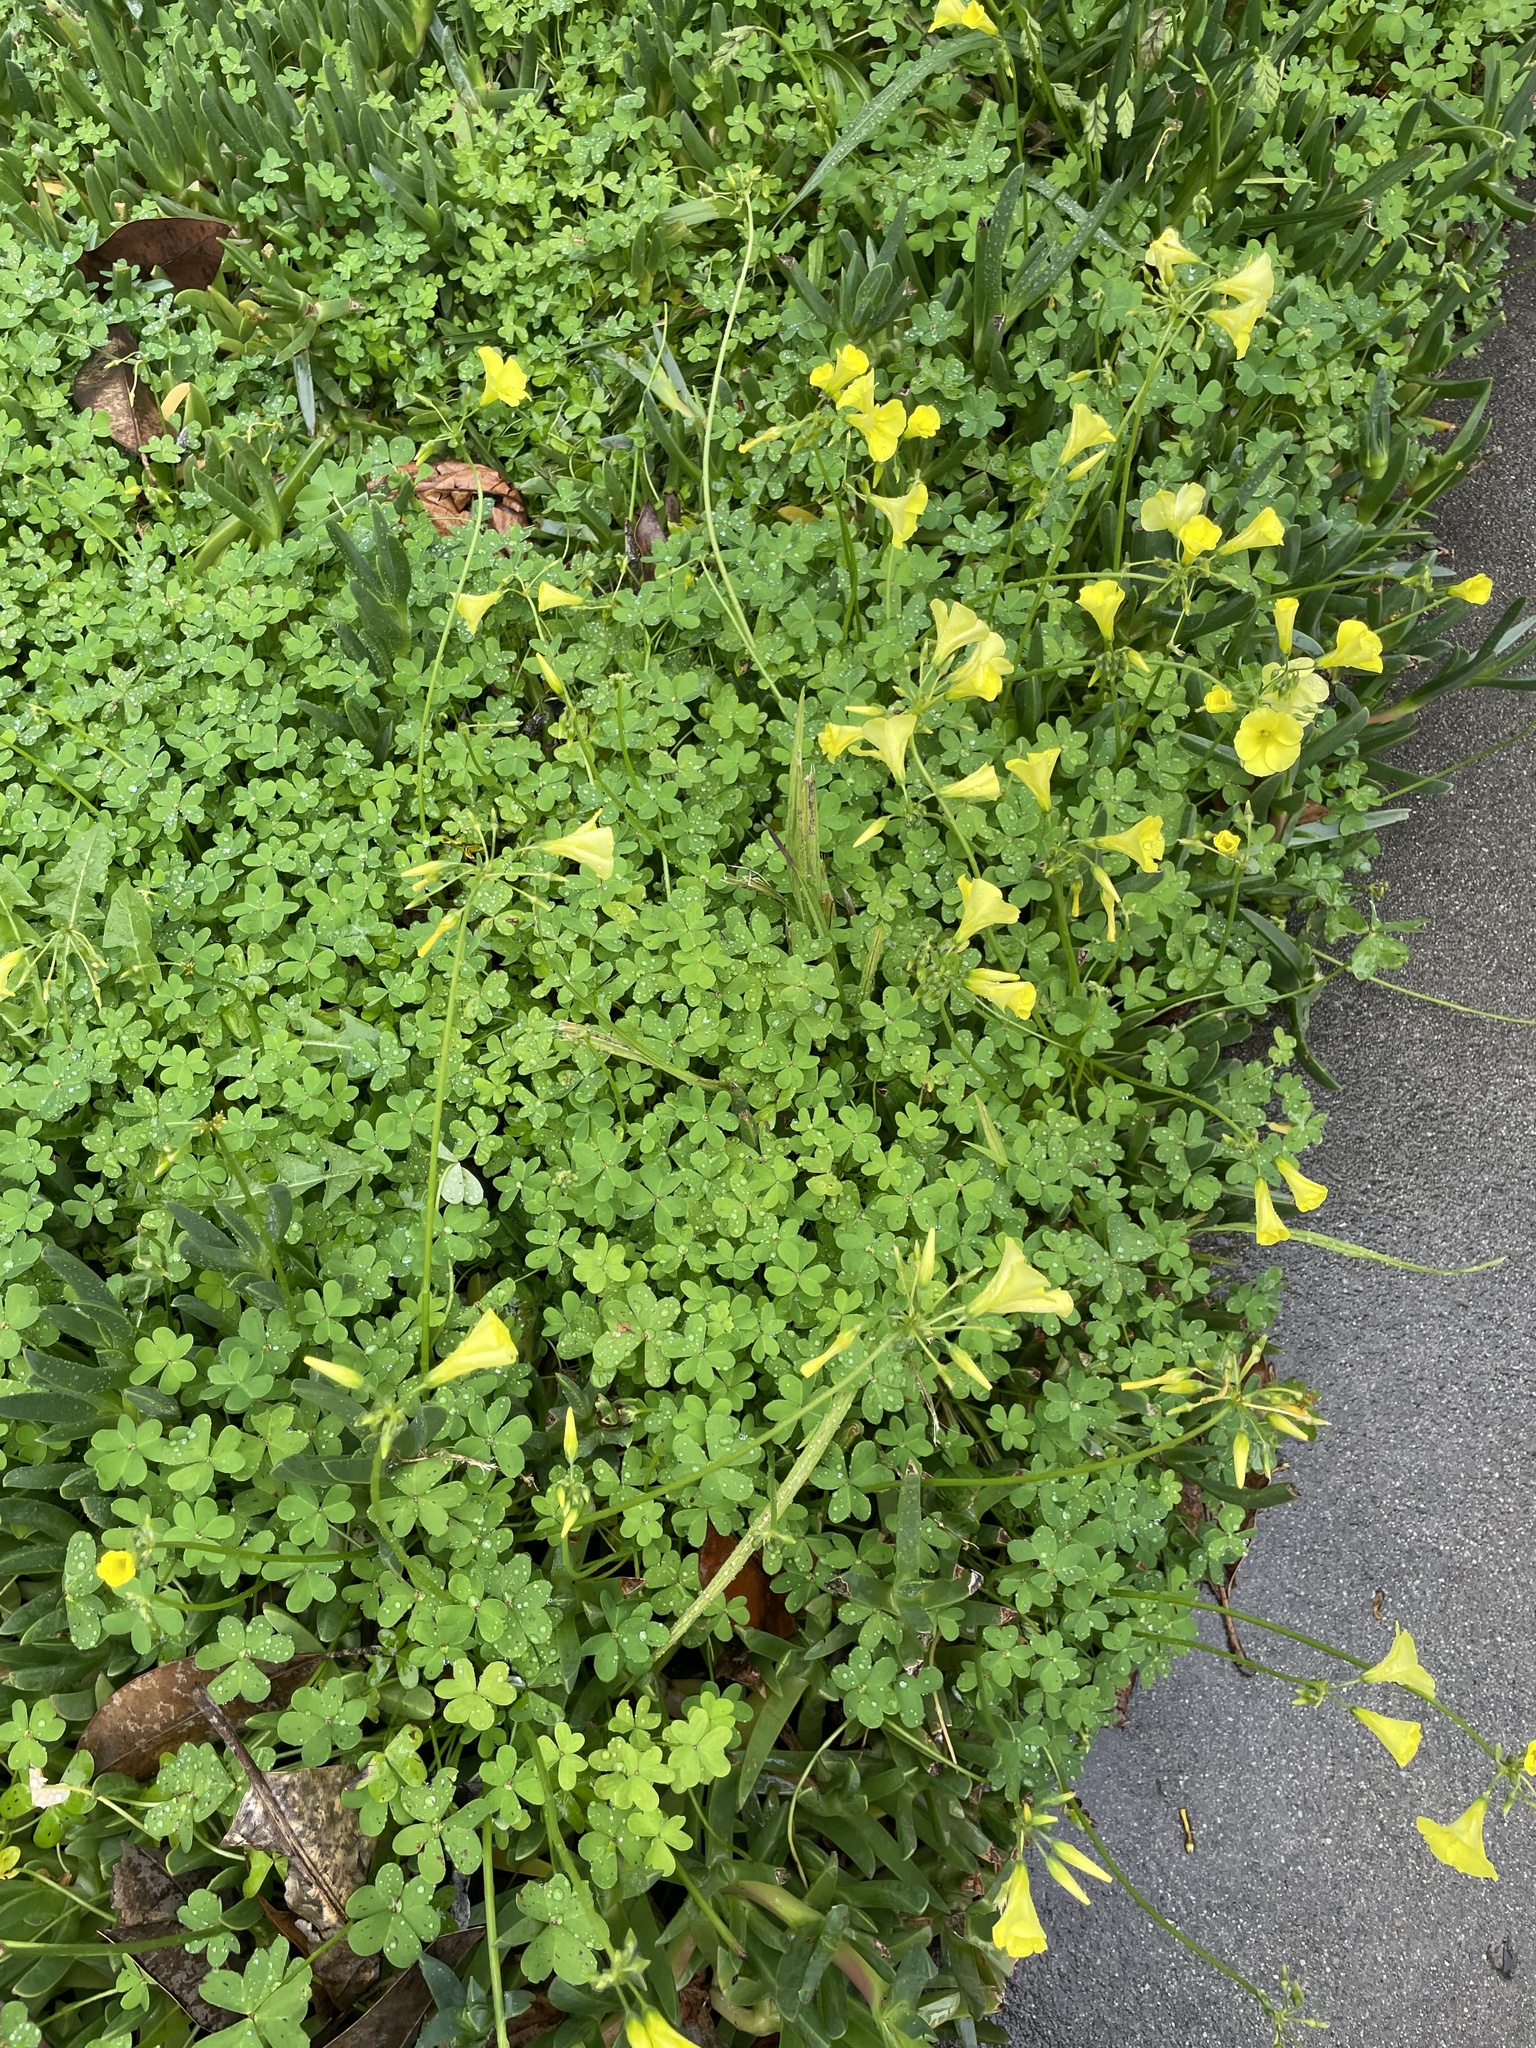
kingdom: Plantae
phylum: Tracheophyta
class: Magnoliopsida
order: Oxalidales
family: Oxalidaceae
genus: Oxalis
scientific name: Oxalis pes-caprae
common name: Bermuda-buttercup
